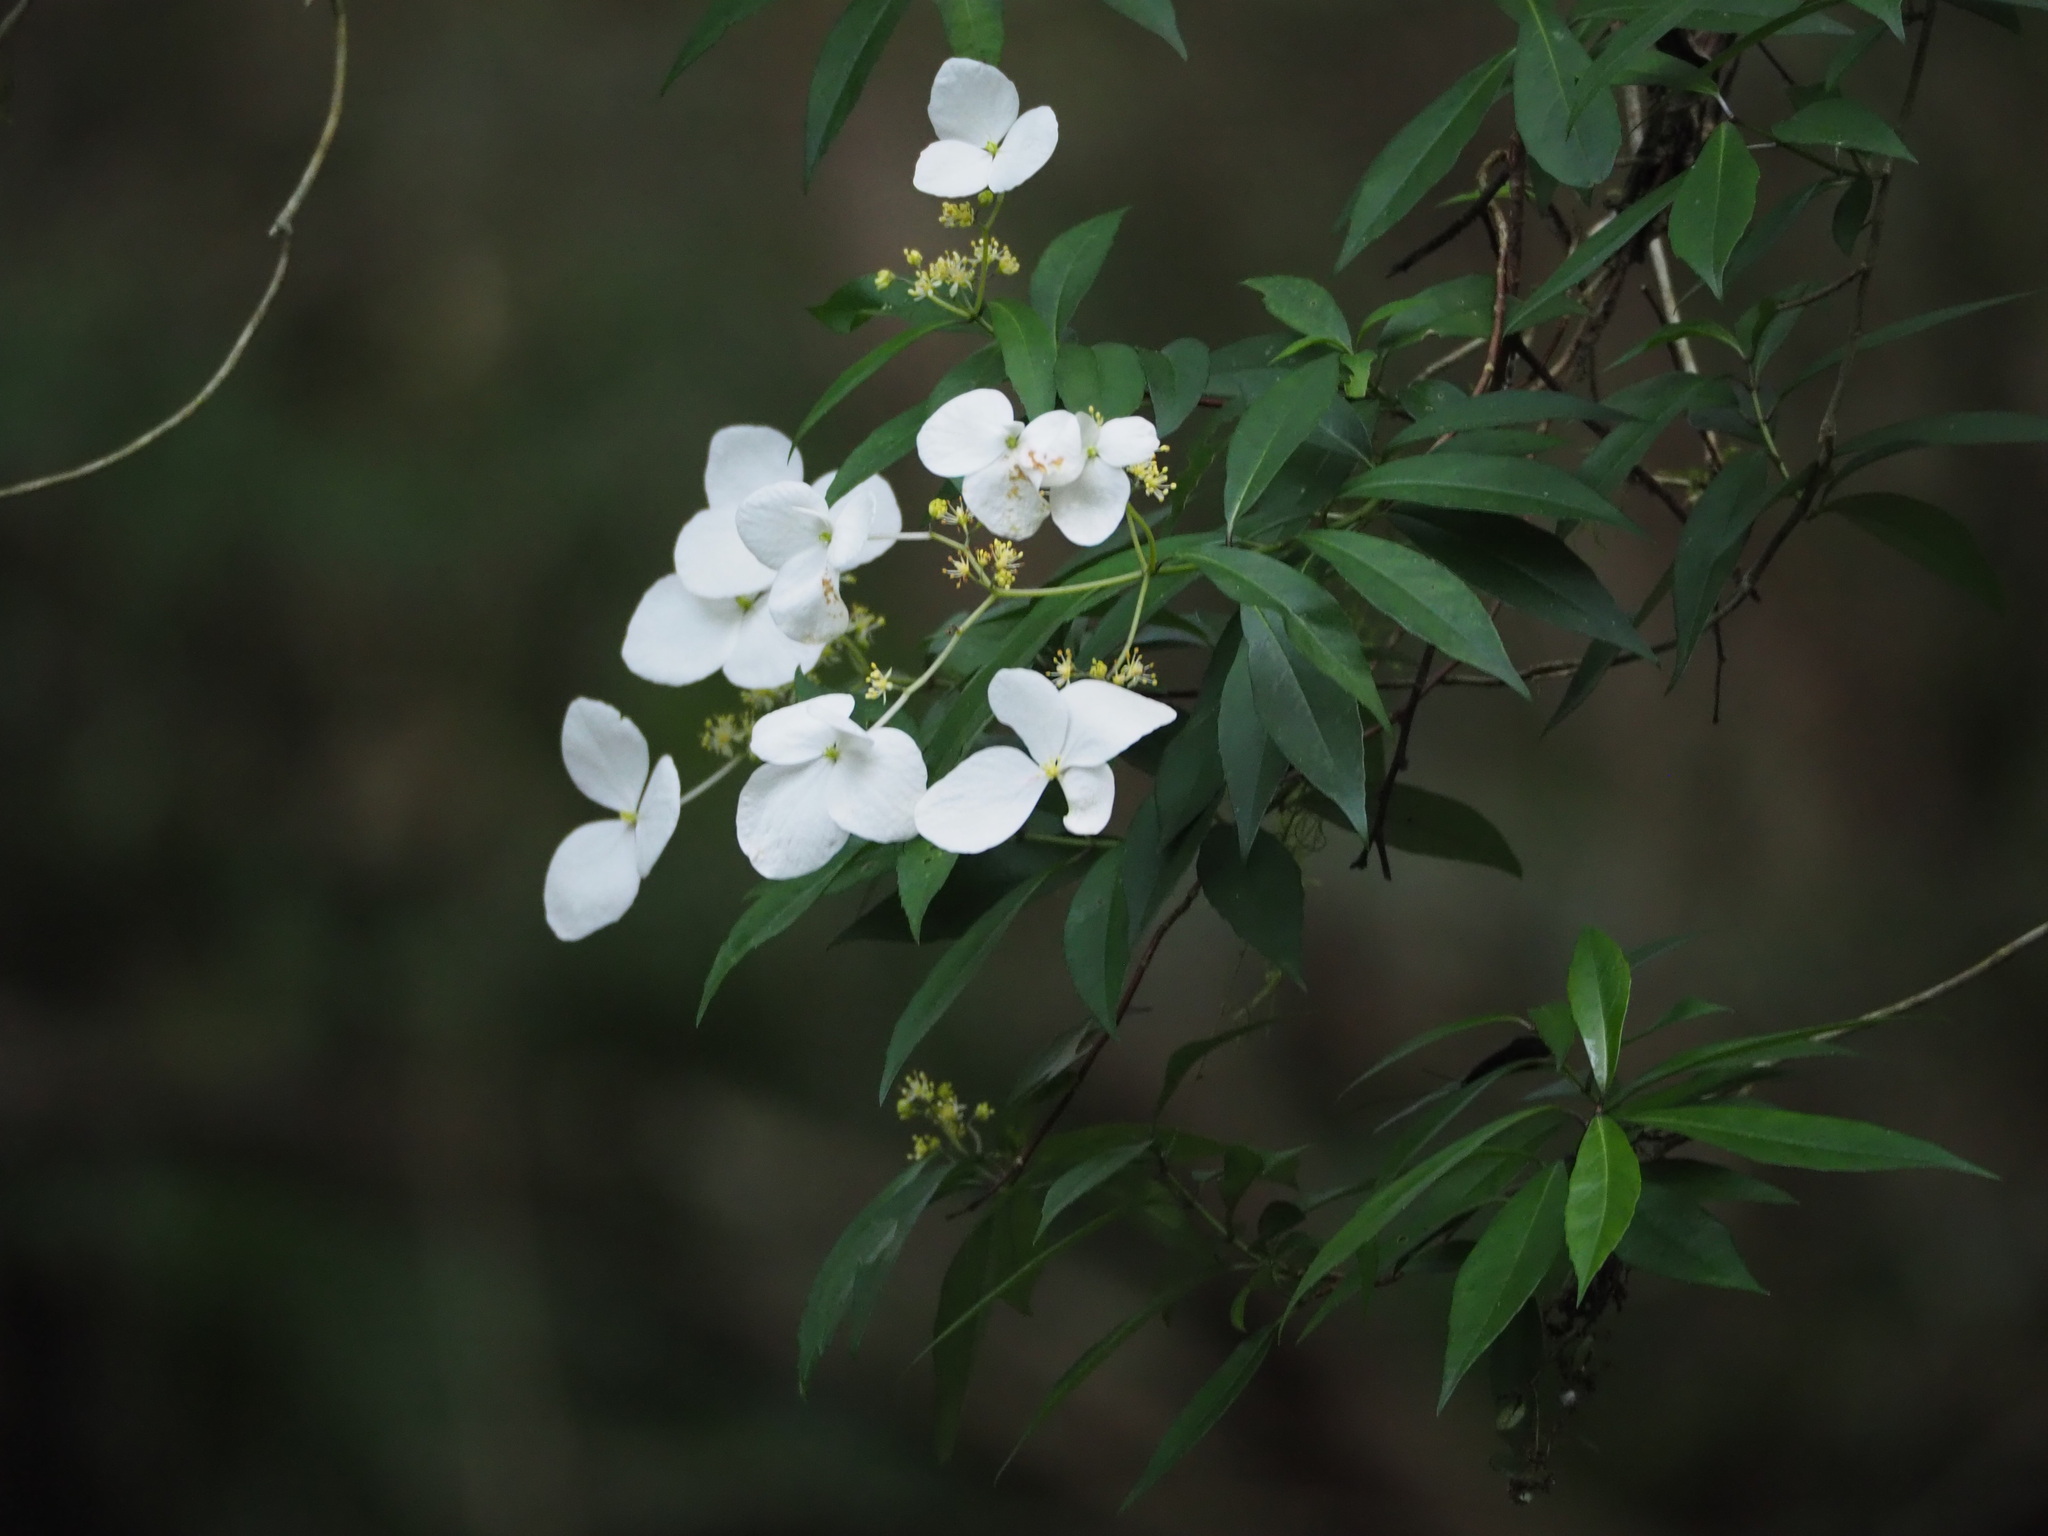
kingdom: Plantae
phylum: Tracheophyta
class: Magnoliopsida
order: Cornales
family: Hydrangeaceae
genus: Hydrangea
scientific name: Hydrangea chinensis
